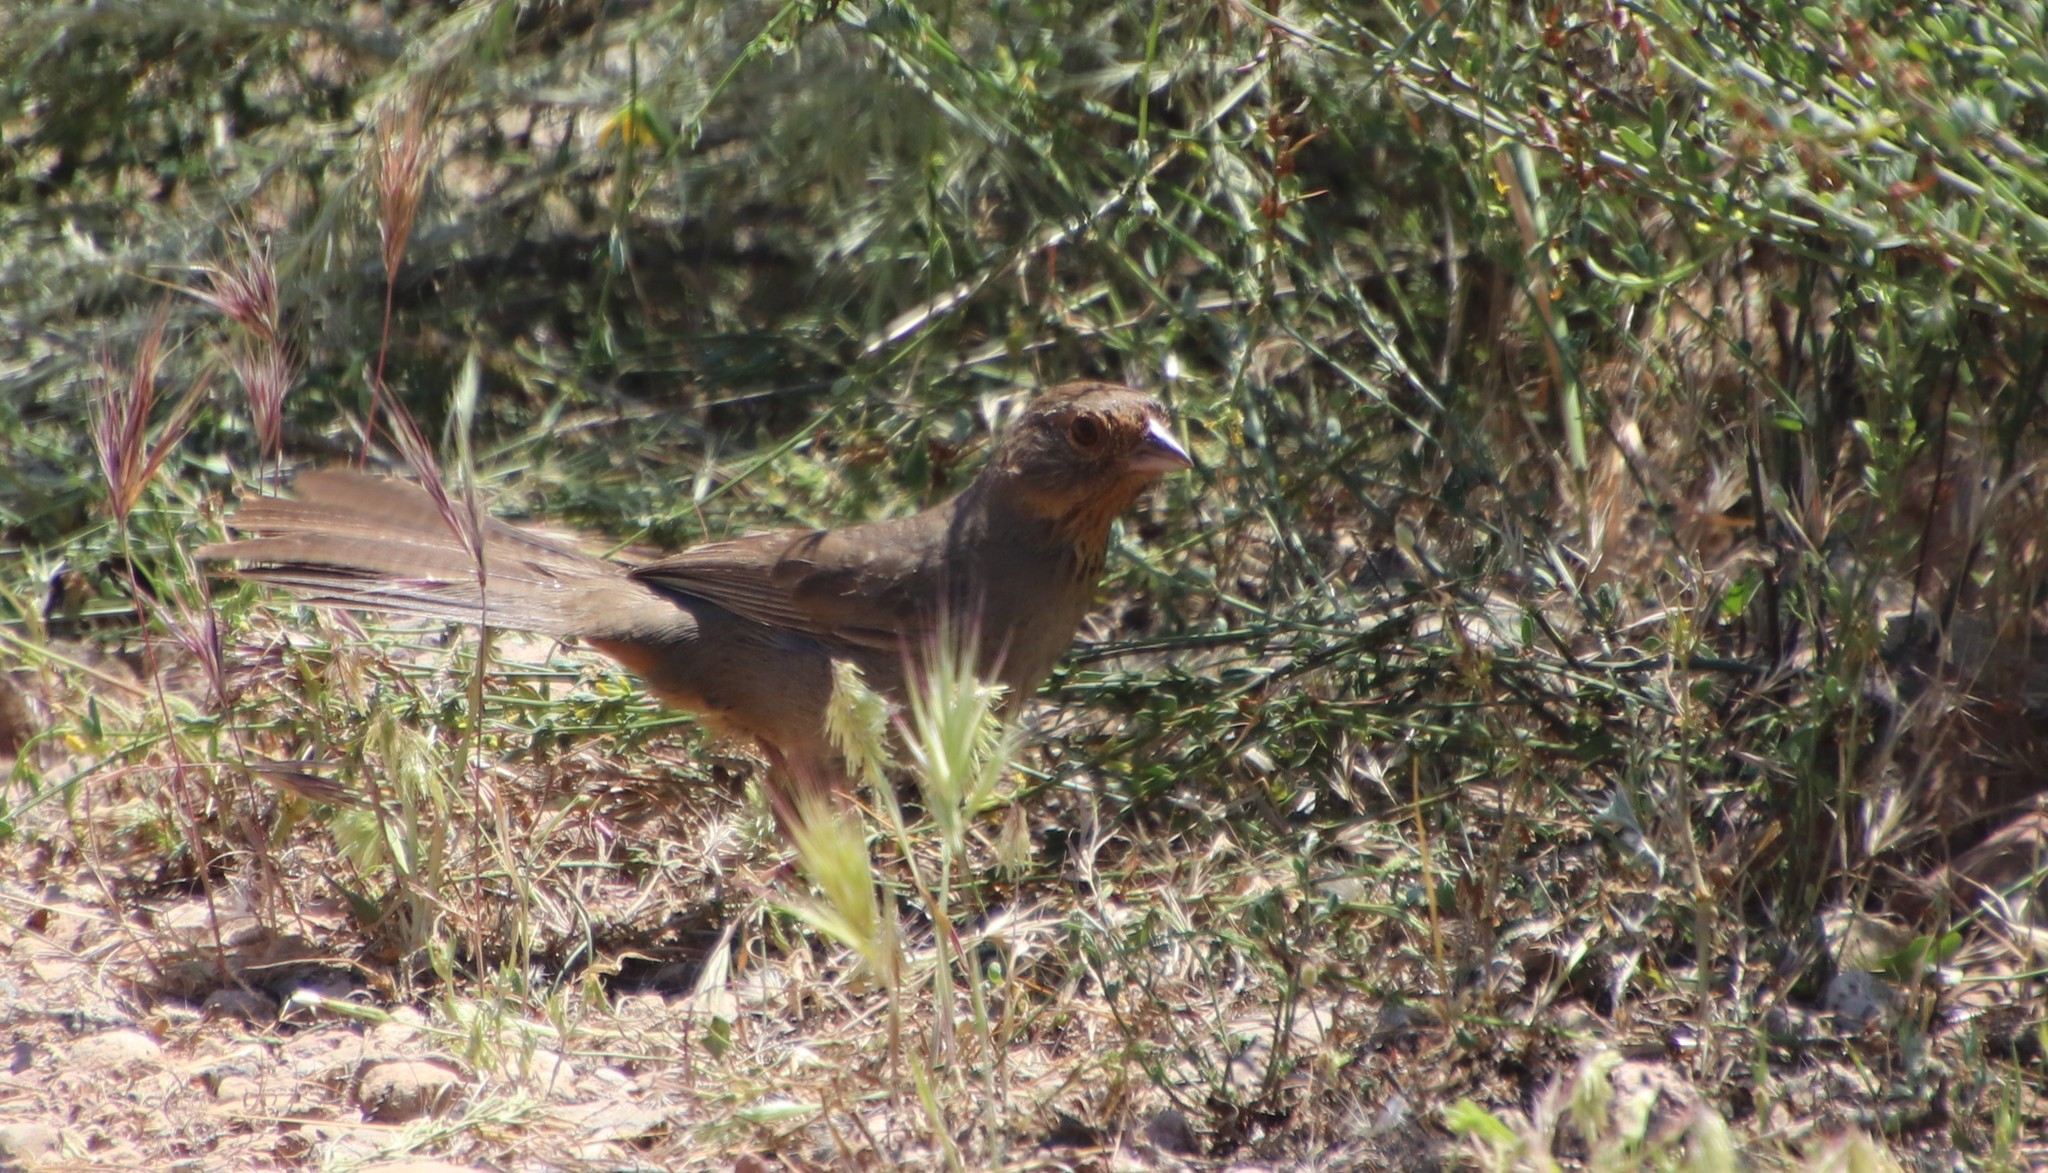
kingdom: Animalia
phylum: Chordata
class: Aves
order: Passeriformes
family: Passerellidae
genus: Melozone
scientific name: Melozone crissalis
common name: California towhee
